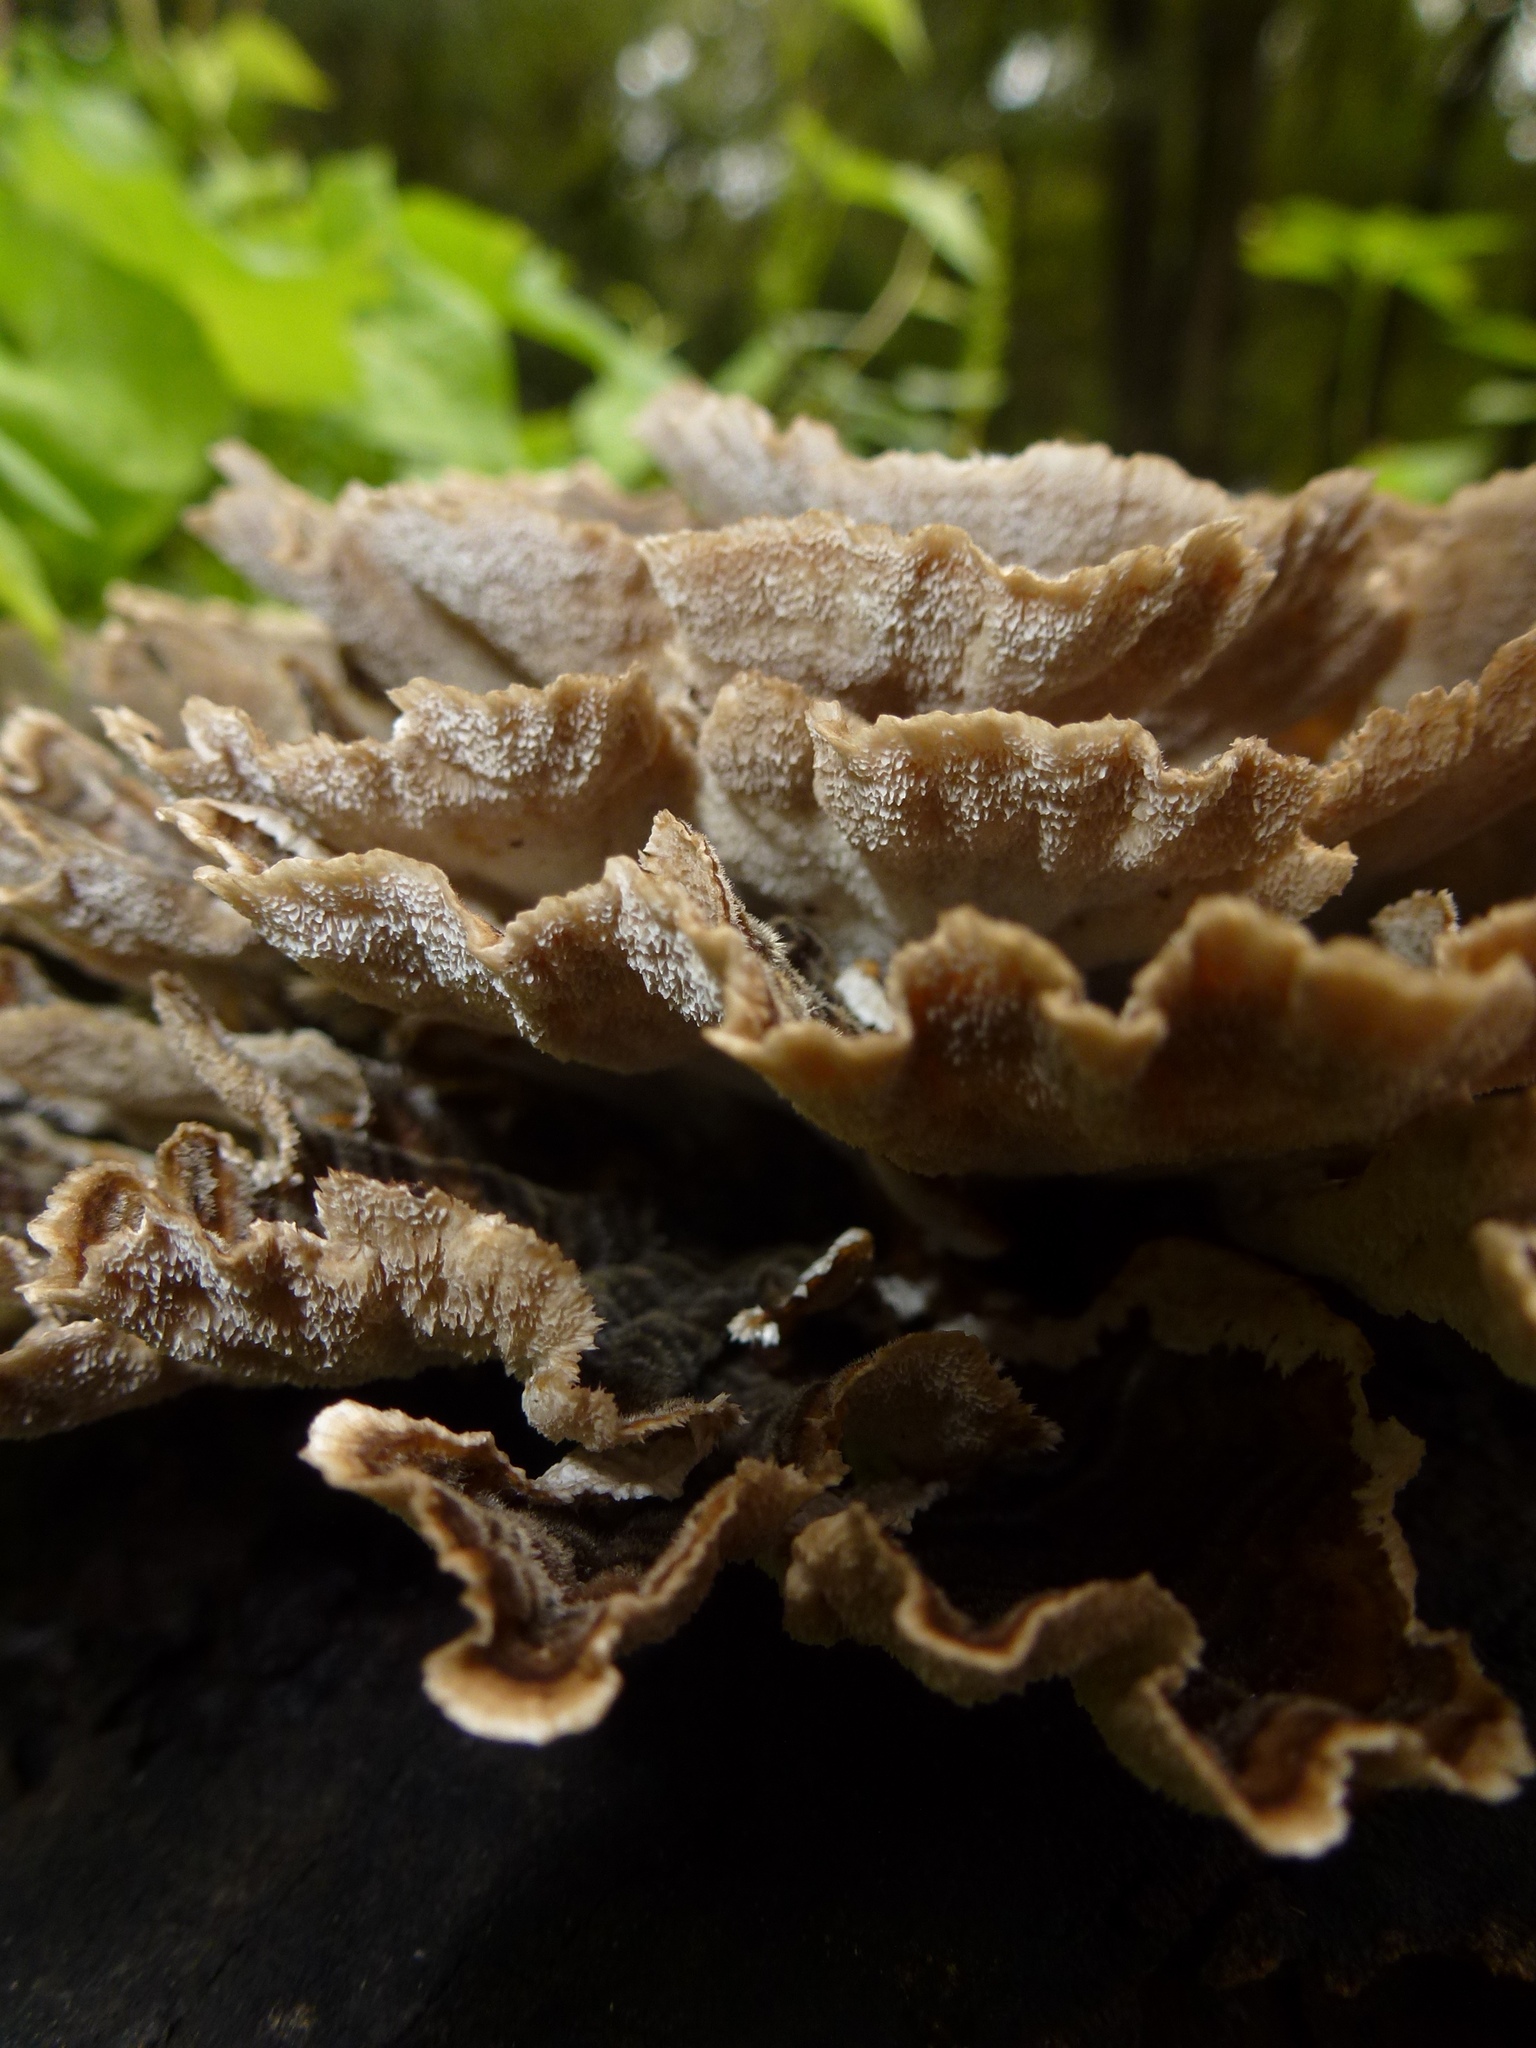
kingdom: Fungi
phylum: Basidiomycota
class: Agaricomycetes
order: Polyporales
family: Polyporaceae
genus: Trametes
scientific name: Trametes versicolor
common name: Turkeytail
